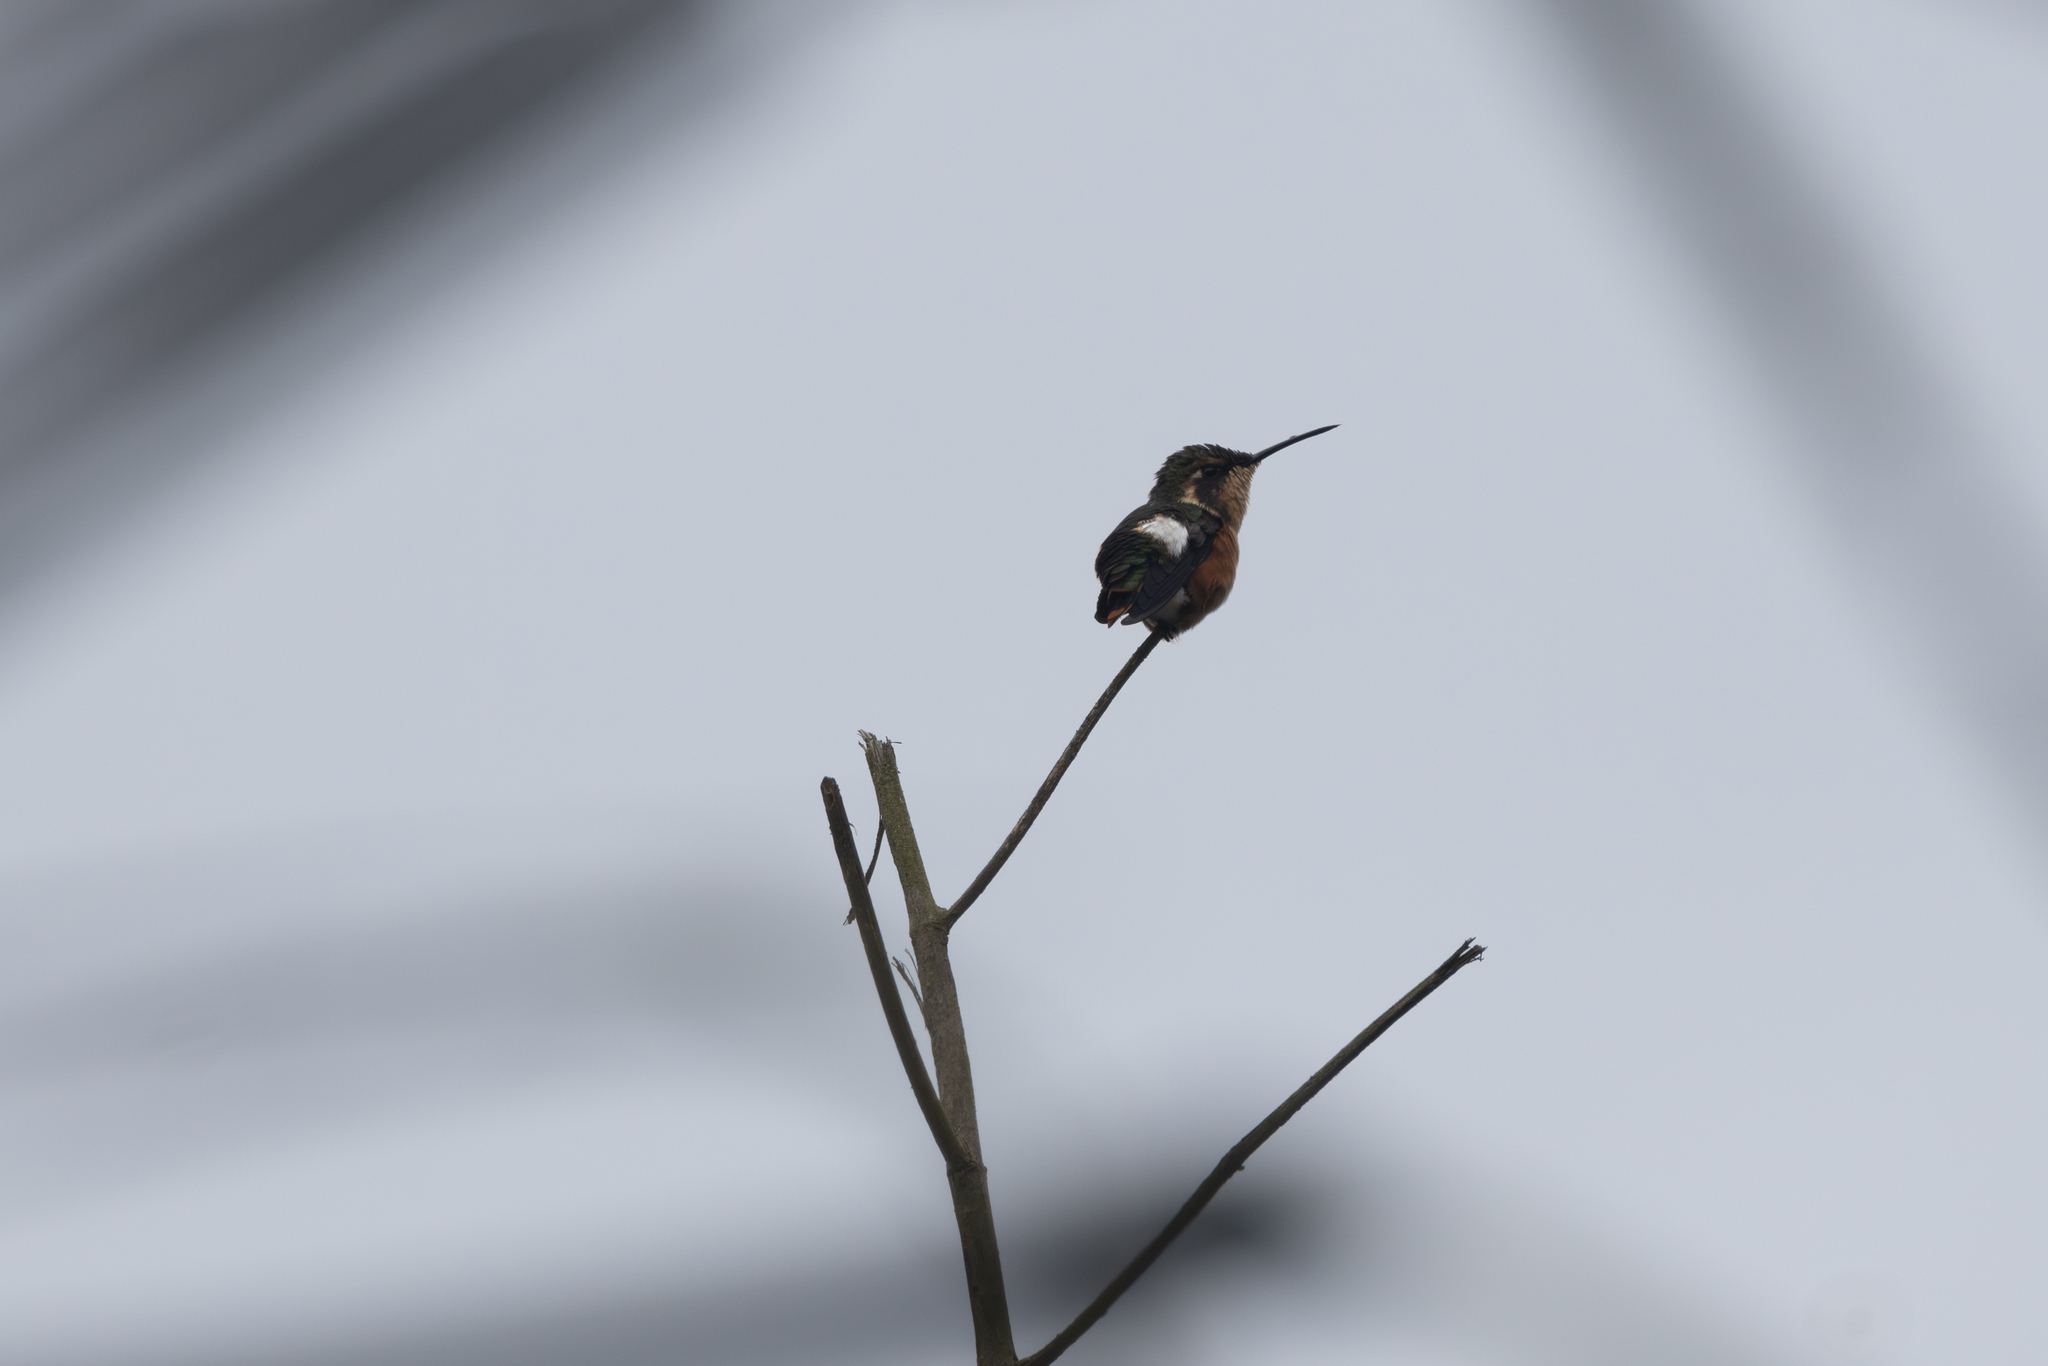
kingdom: Animalia
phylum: Chordata
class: Aves
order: Apodiformes
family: Trochilidae
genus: Chaetocercus
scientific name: Chaetocercus mulsant
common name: White-bellied woodstar
